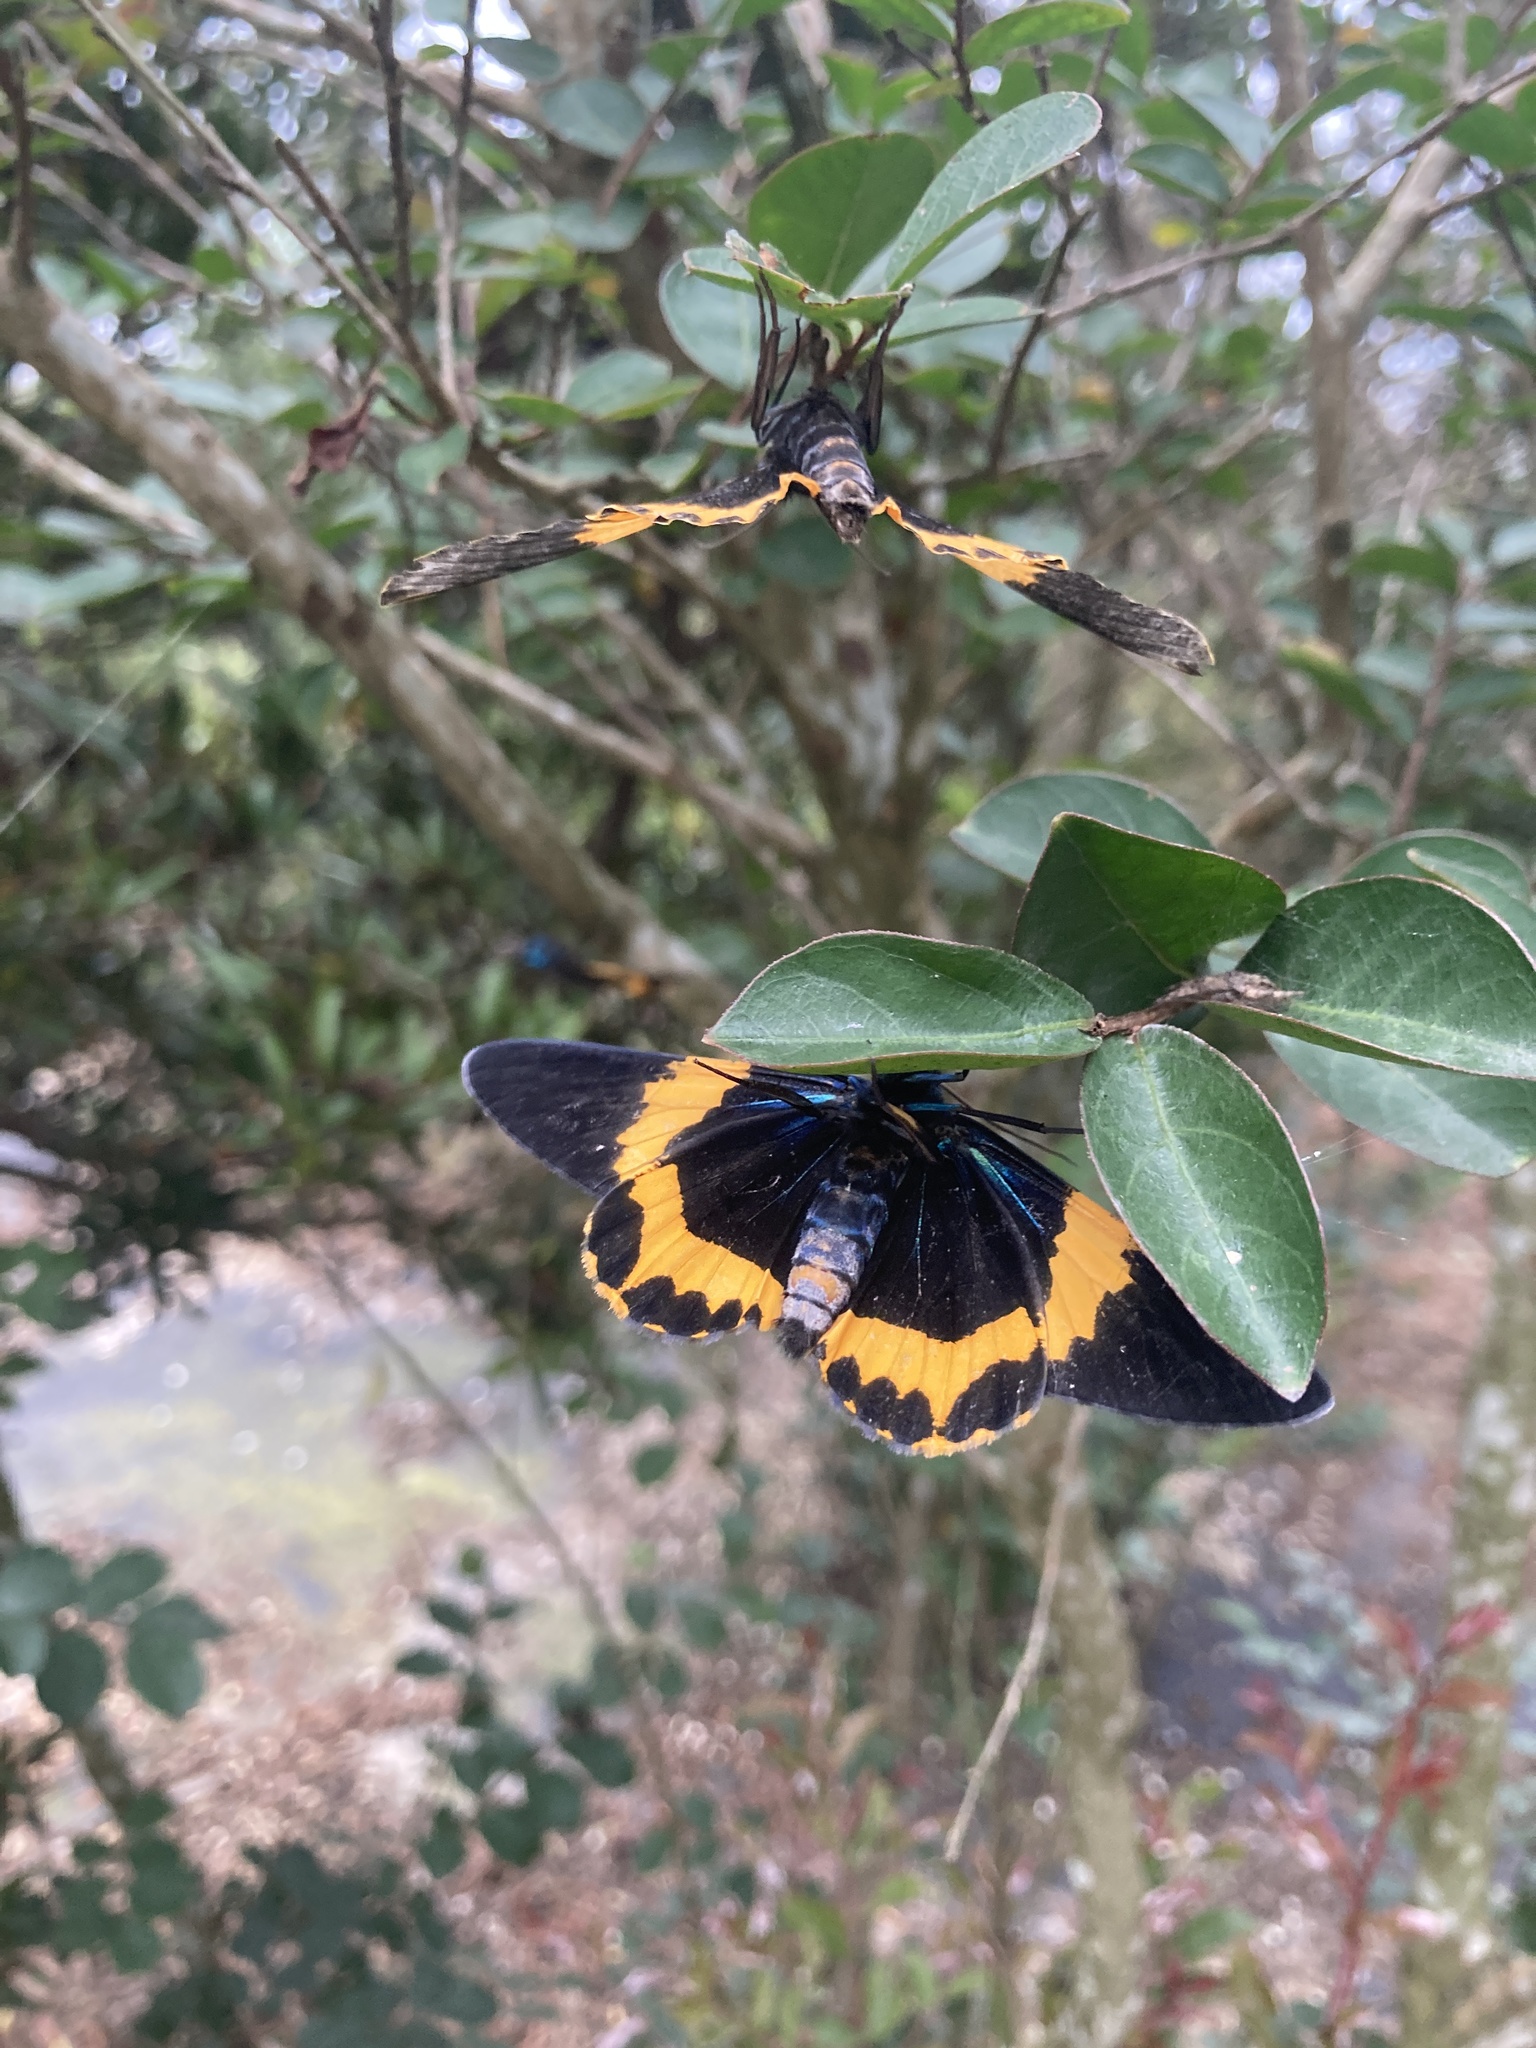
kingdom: Animalia
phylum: Arthropoda
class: Insecta
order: Lepidoptera
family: Geometridae
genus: Milionia
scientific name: Milionia basalis
